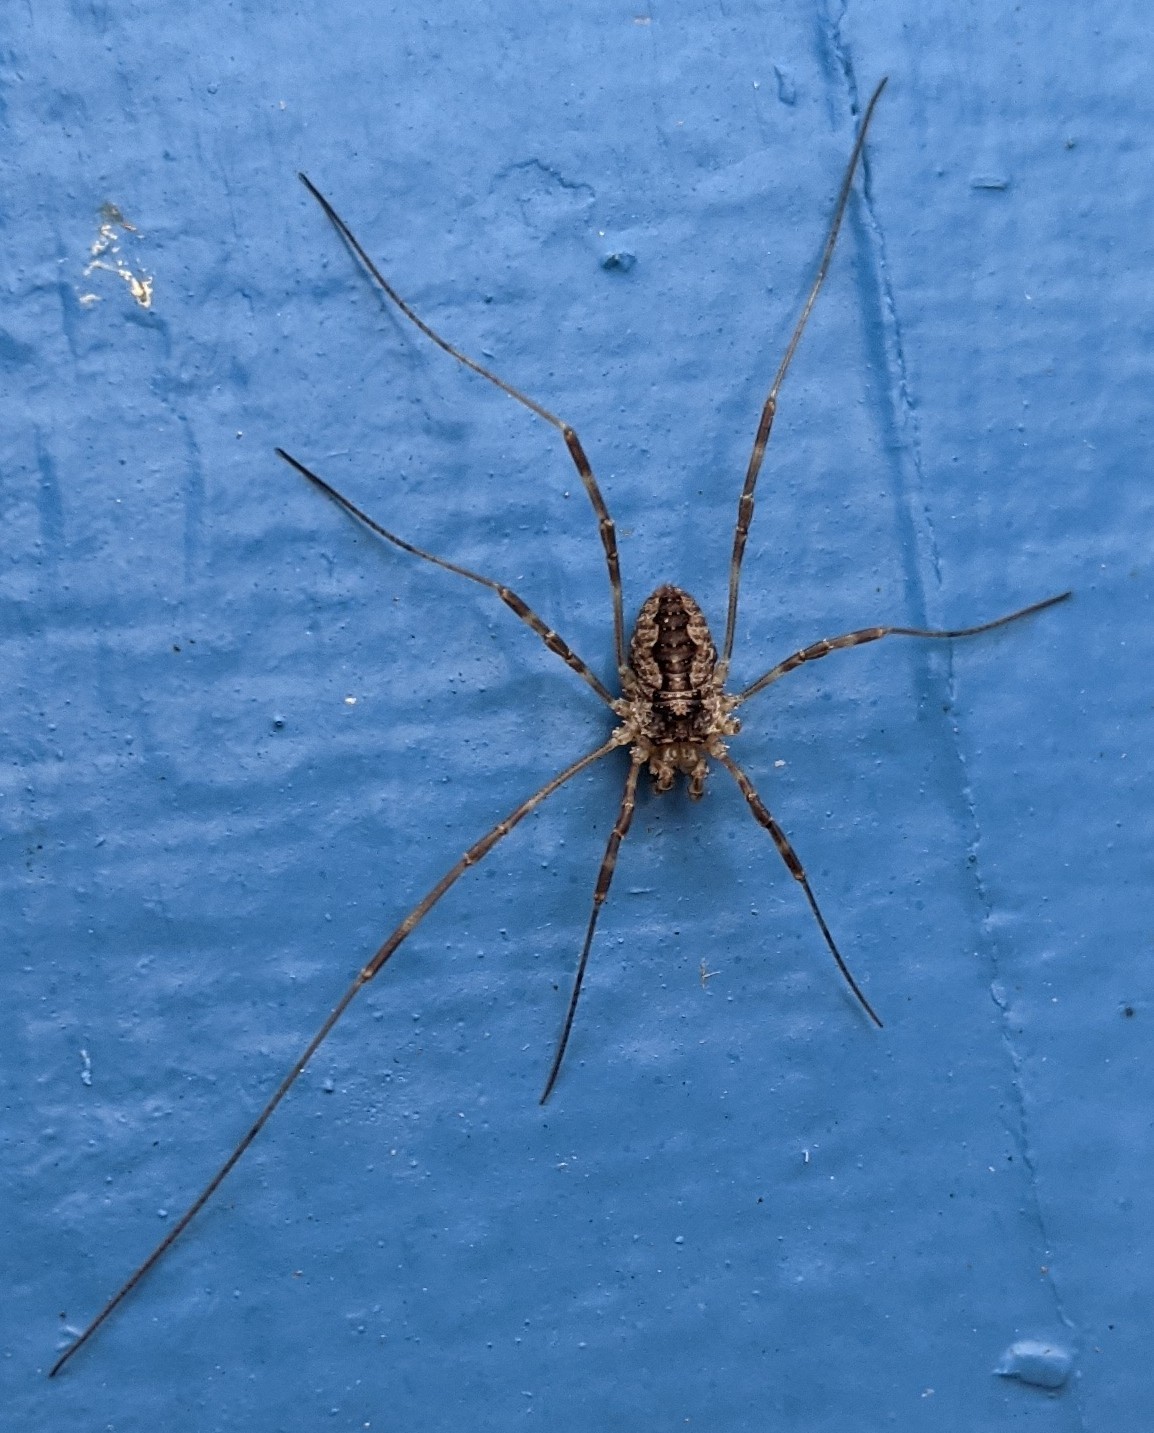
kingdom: Animalia
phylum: Arthropoda
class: Arachnida
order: Opiliones
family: Phalangiidae
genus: Odiellus
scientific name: Odiellus pictus
